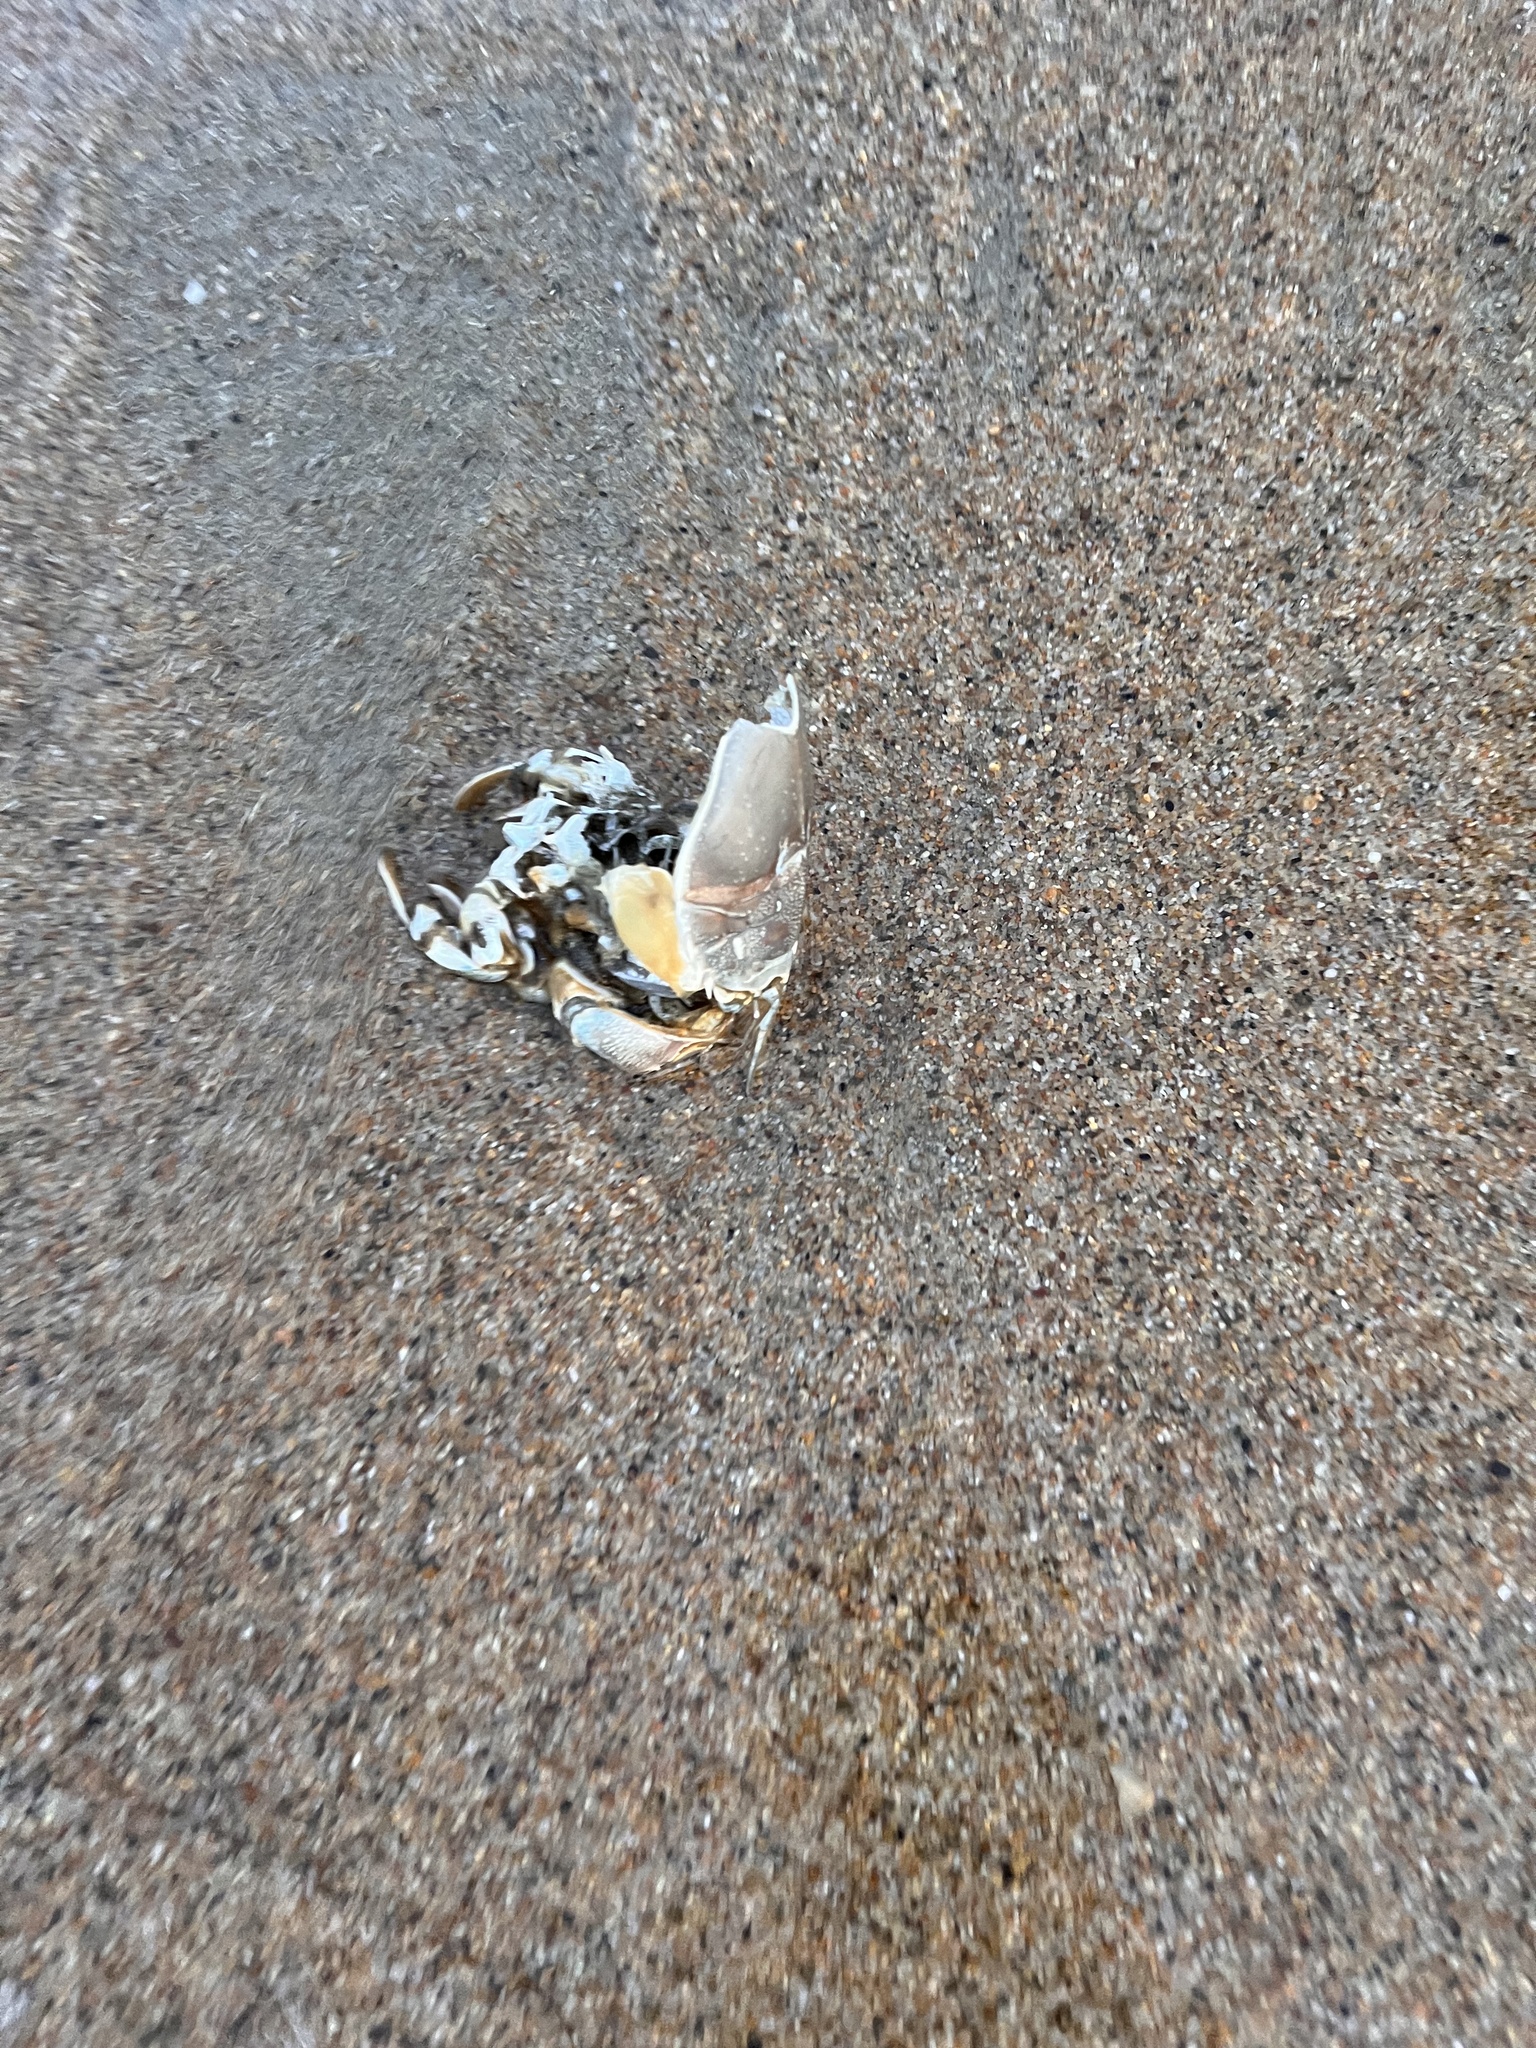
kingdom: Animalia
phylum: Arthropoda
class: Malacostraca
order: Decapoda
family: Blepharipodidae
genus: Blepharipoda
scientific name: Blepharipoda occidentalis
